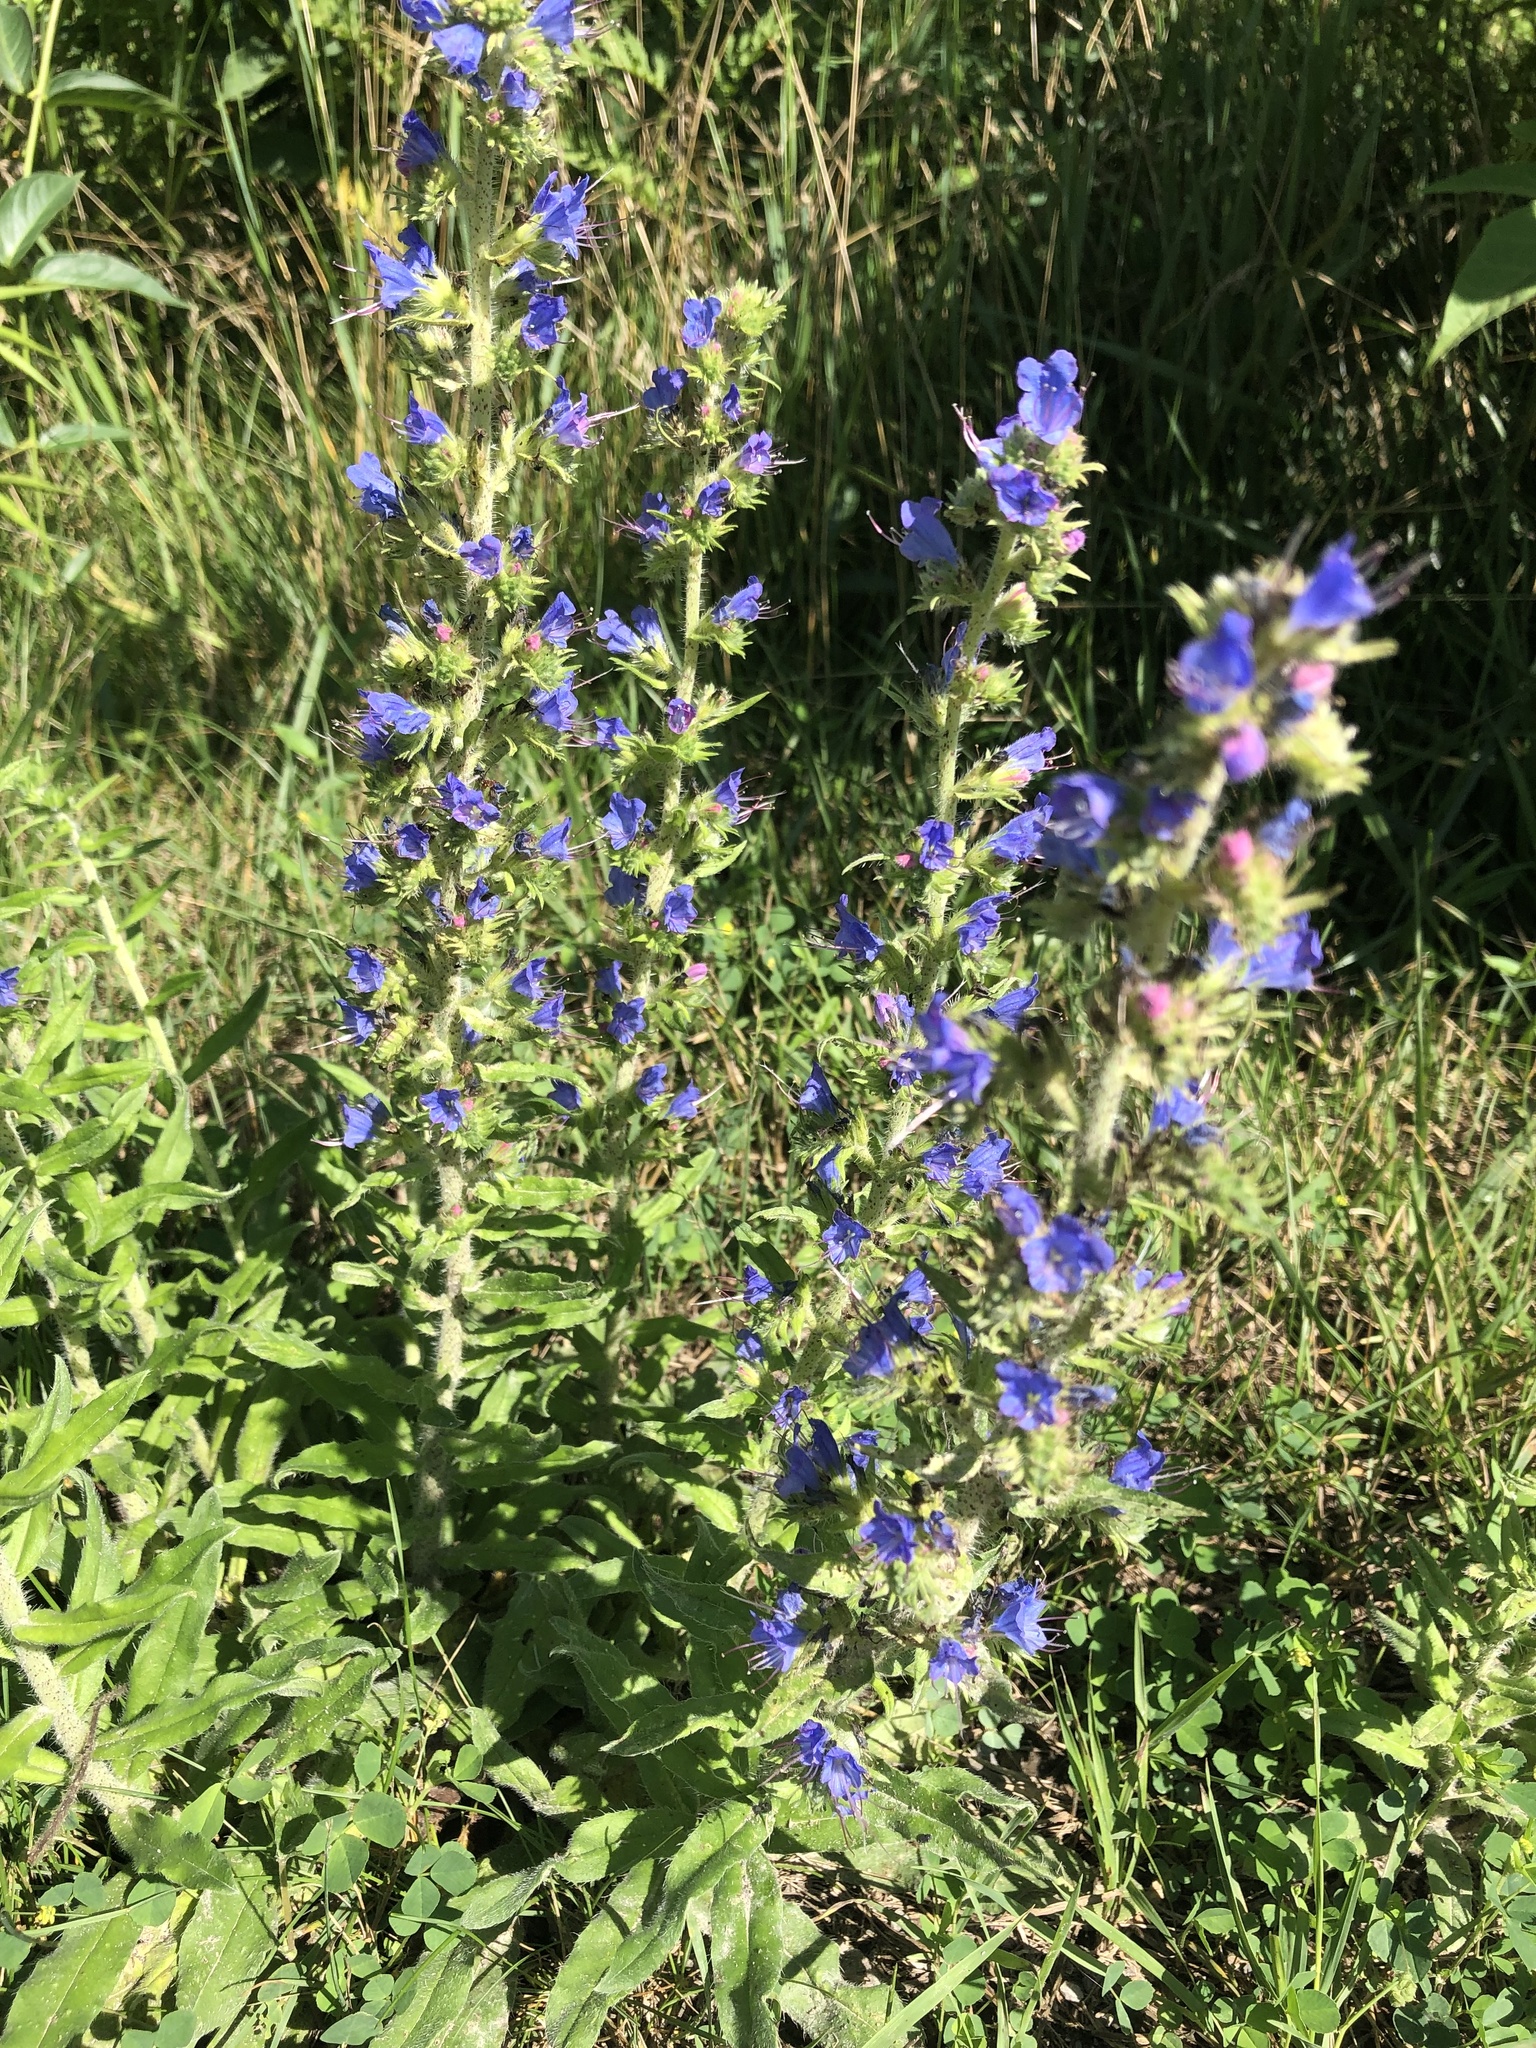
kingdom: Plantae
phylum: Tracheophyta
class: Magnoliopsida
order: Boraginales
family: Boraginaceae
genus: Echium
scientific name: Echium vulgare
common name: Common viper's bugloss
